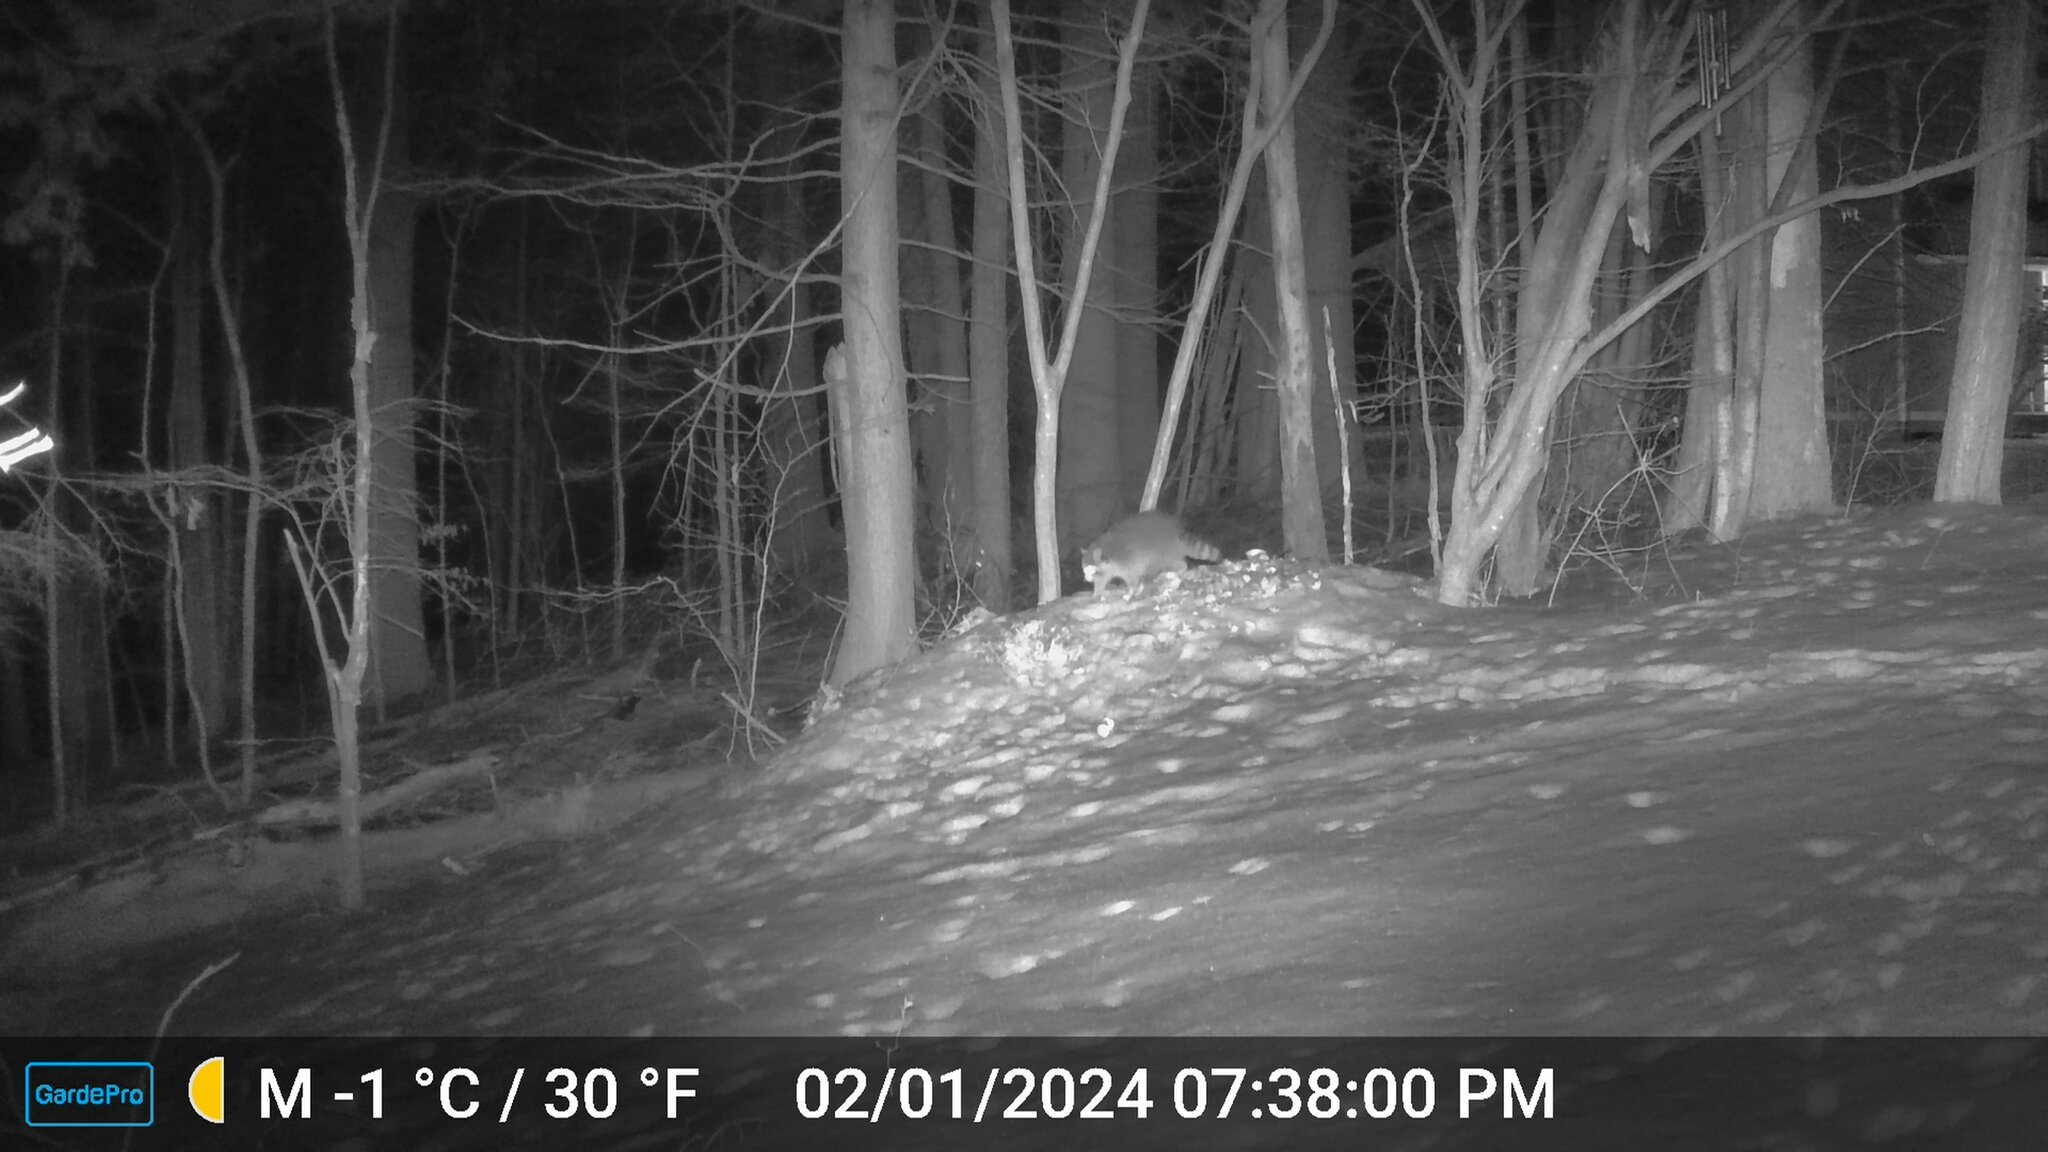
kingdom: Animalia
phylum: Chordata
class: Mammalia
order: Carnivora
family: Procyonidae
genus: Procyon
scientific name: Procyon lotor
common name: Raccoon
